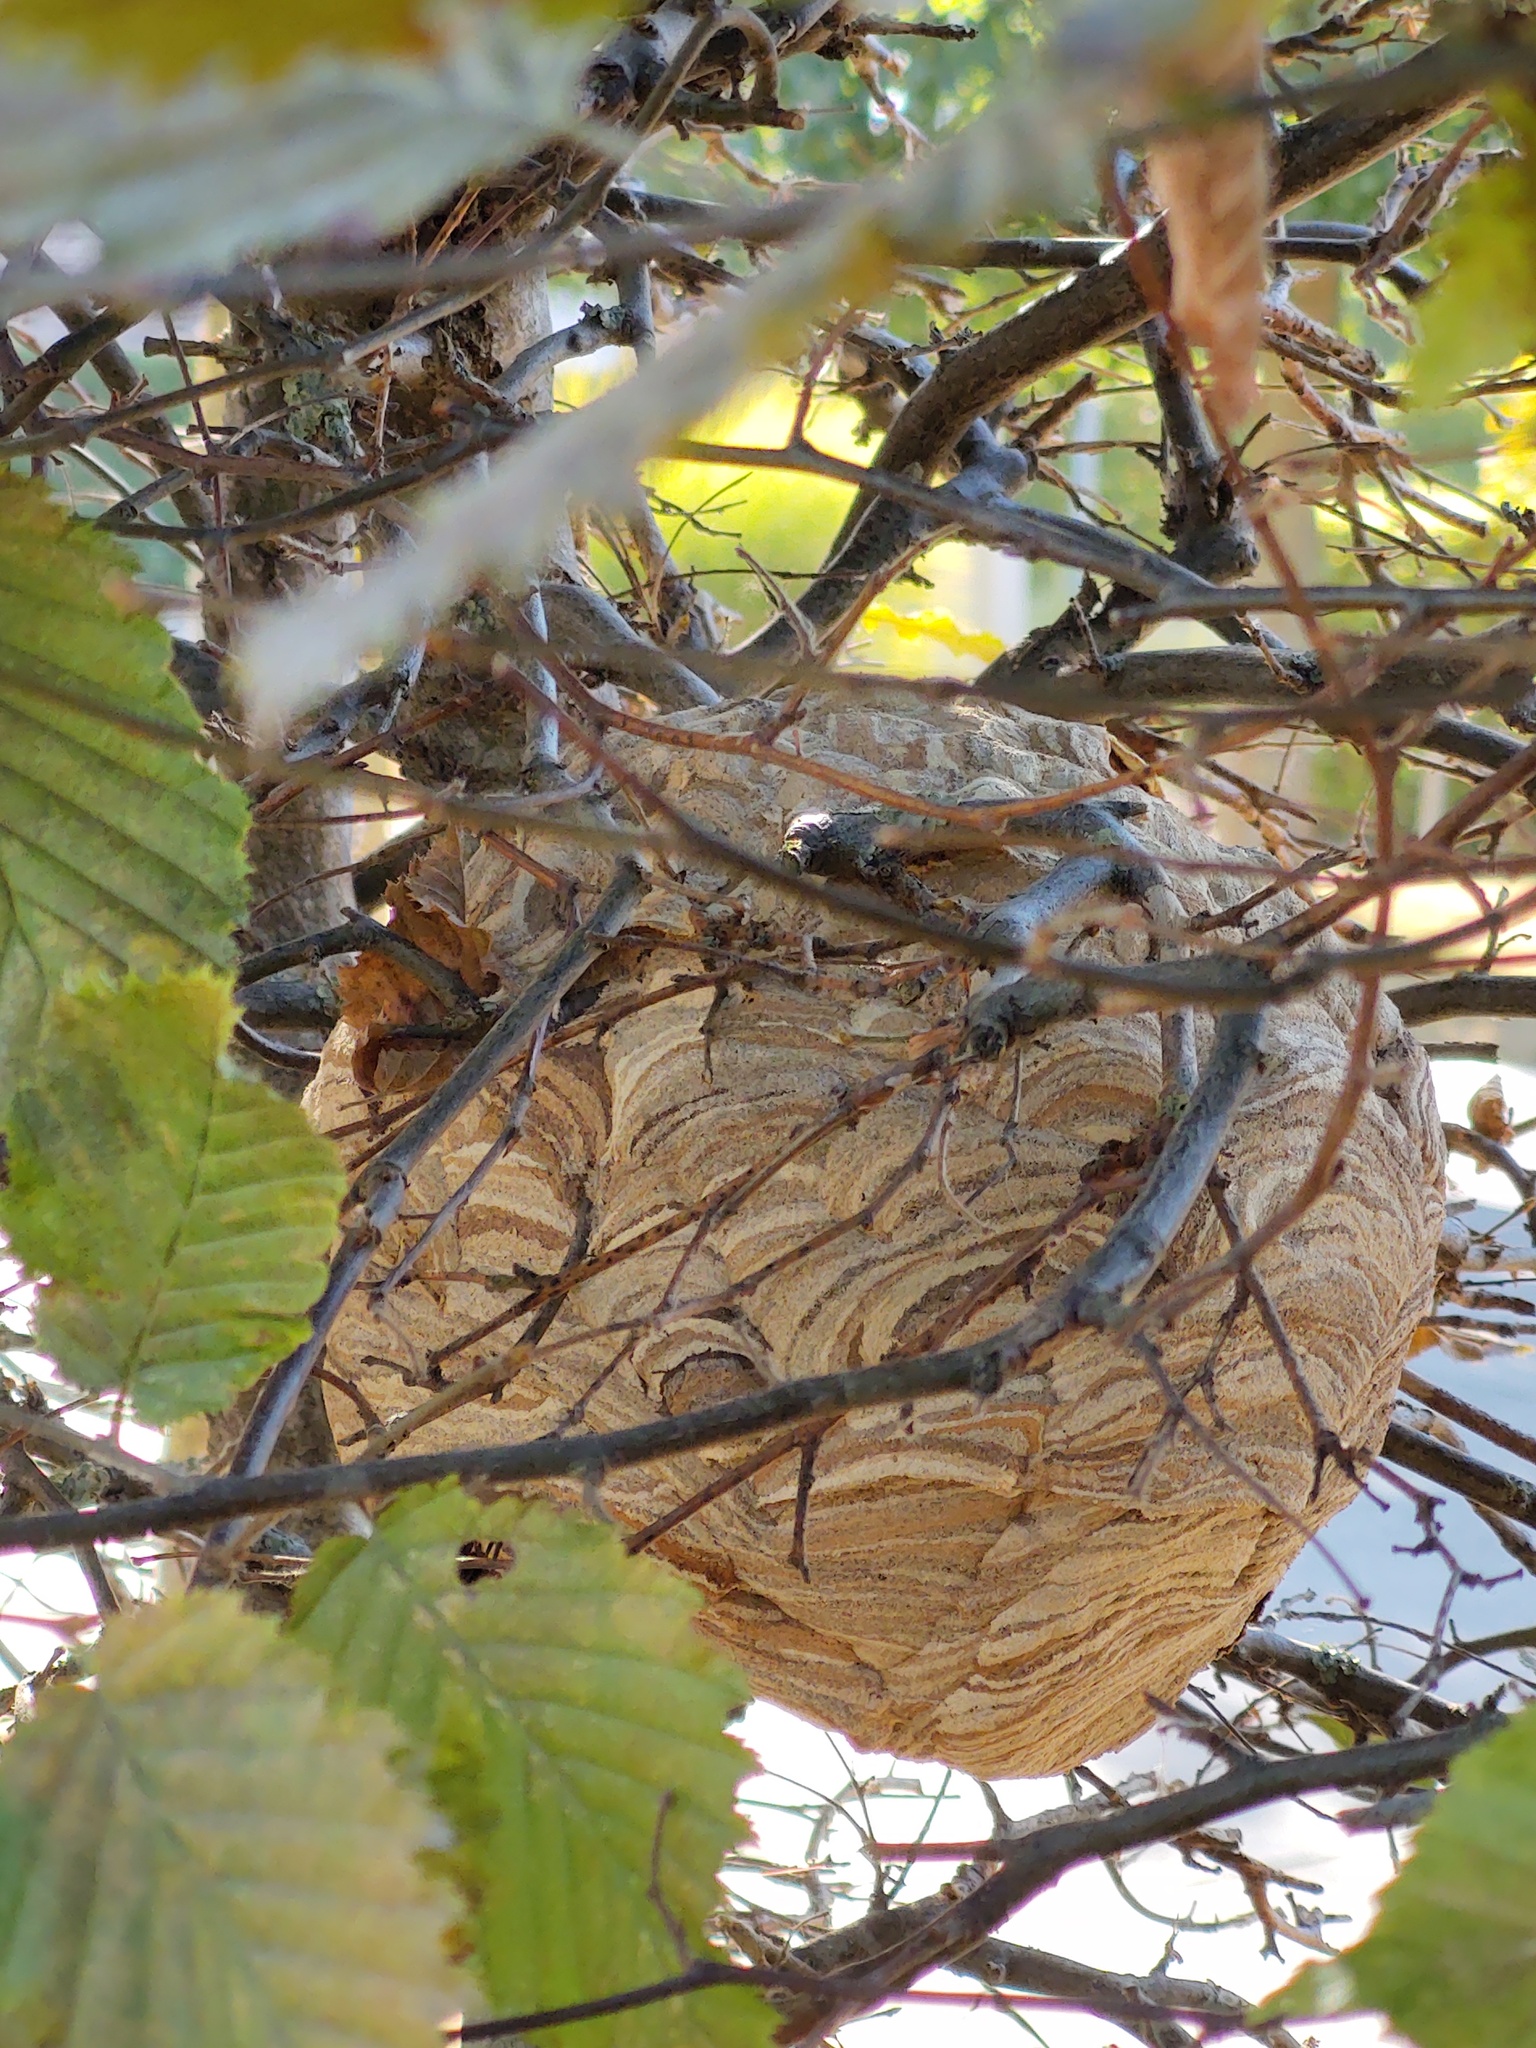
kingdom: Animalia
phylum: Arthropoda
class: Insecta
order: Hymenoptera
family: Vespidae
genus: Vespa
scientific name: Vespa velutina
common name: Asian hornet
